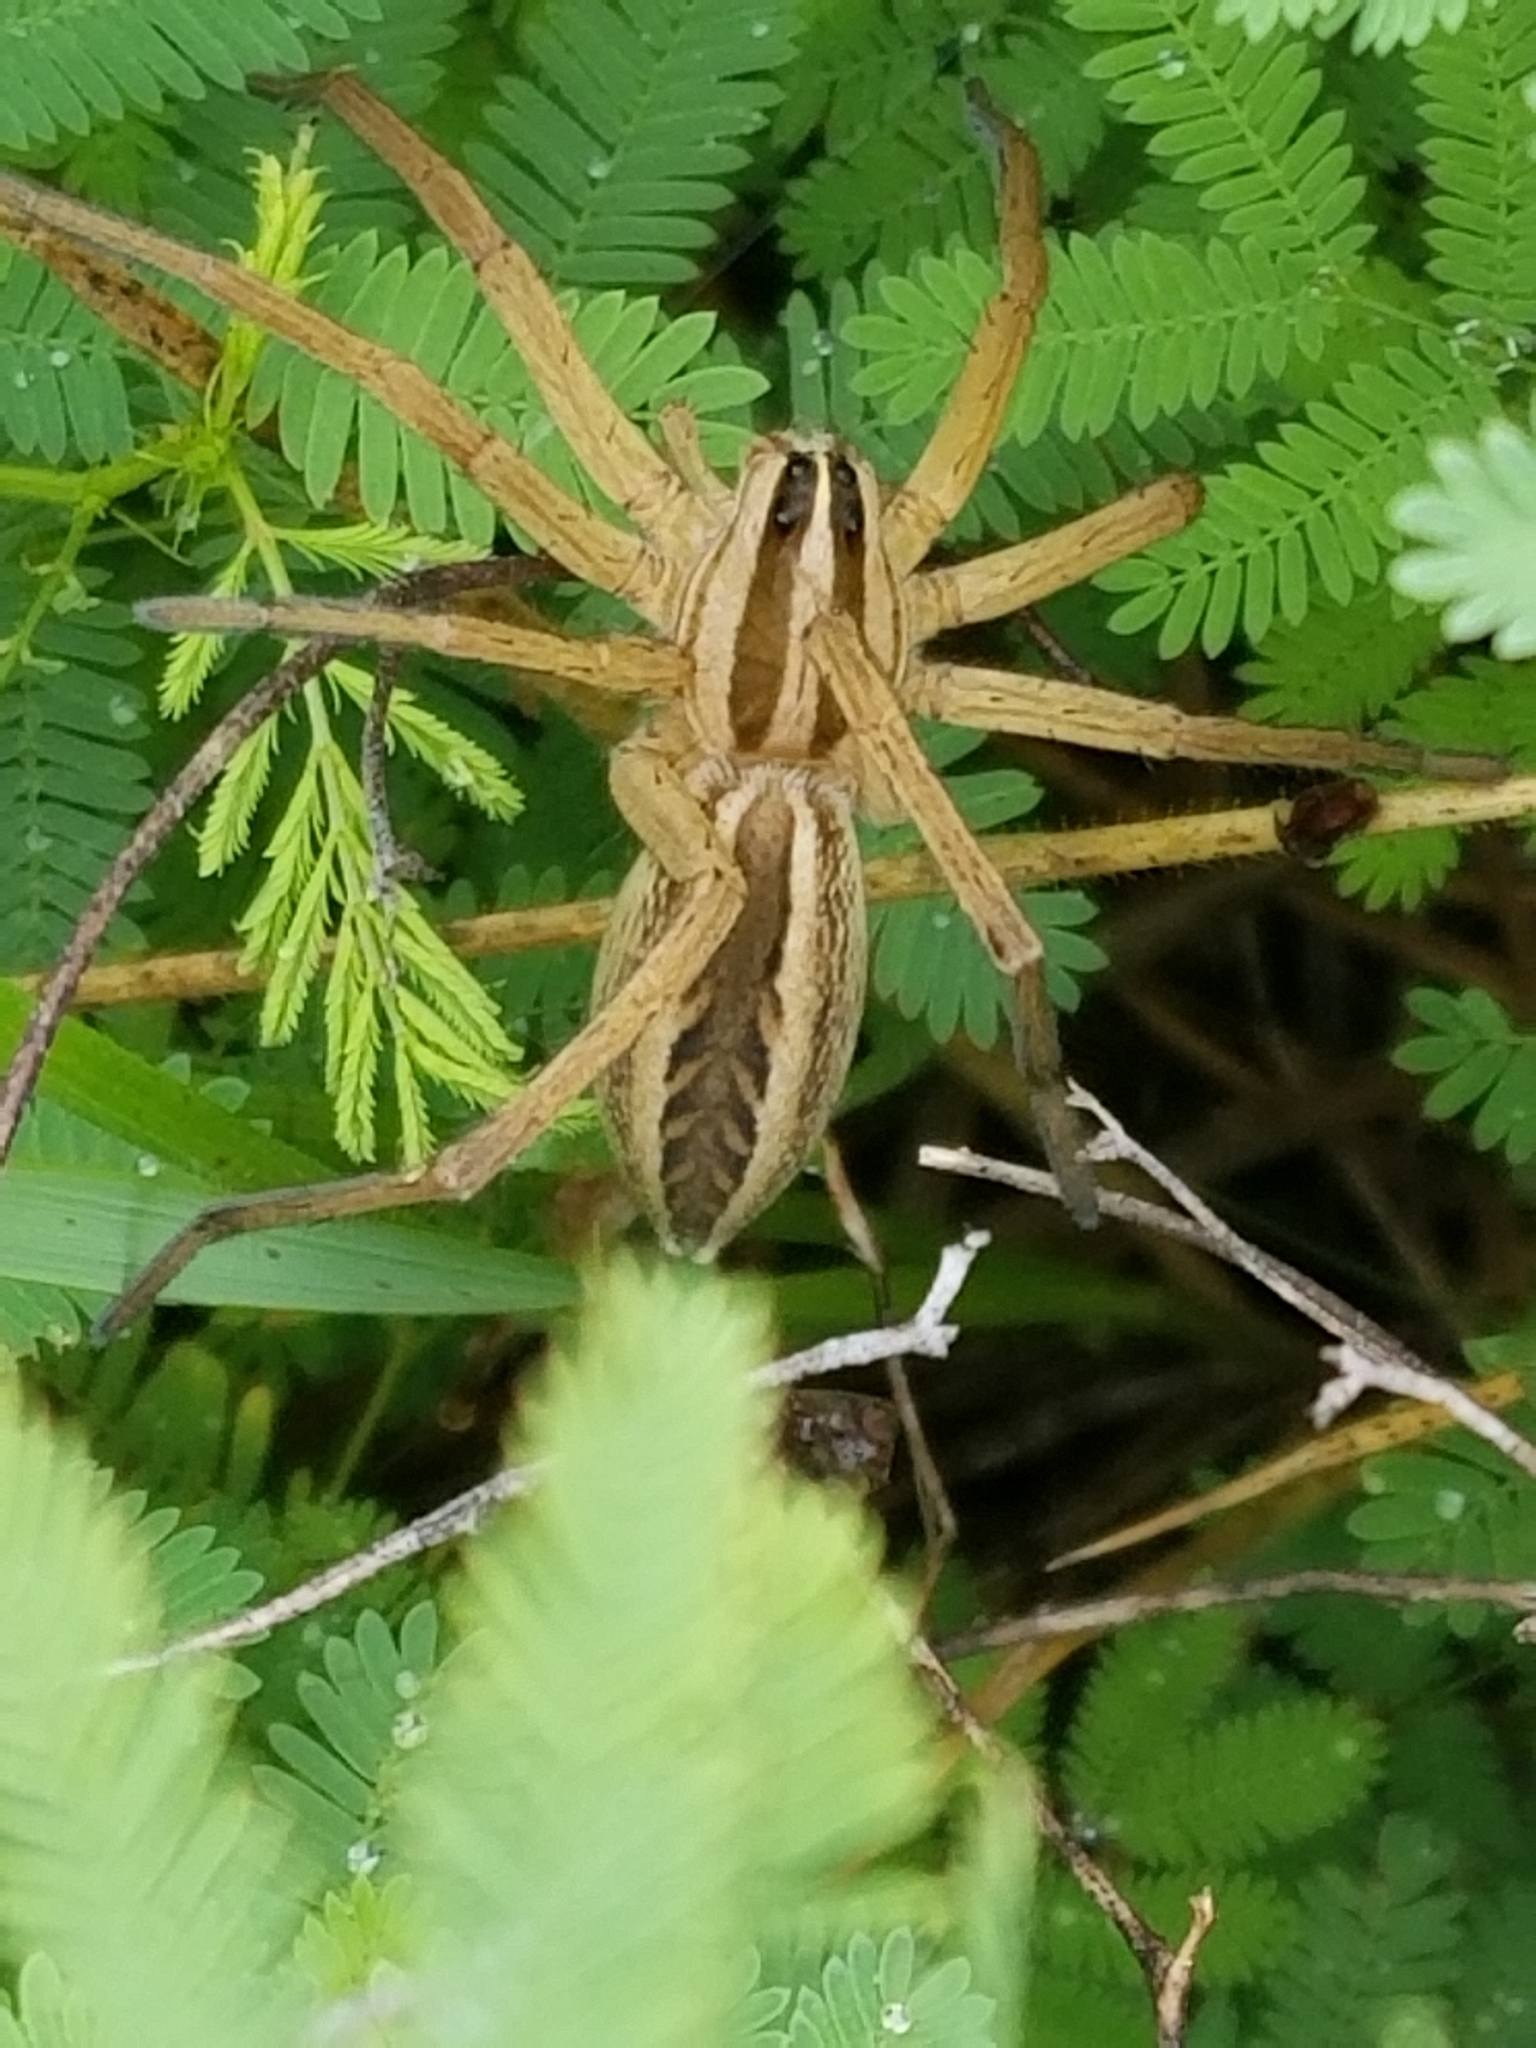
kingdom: Animalia
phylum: Arthropoda
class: Arachnida
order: Araneae
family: Lycosidae
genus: Rabidosa
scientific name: Rabidosa rabida
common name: Rabid wolf spider
